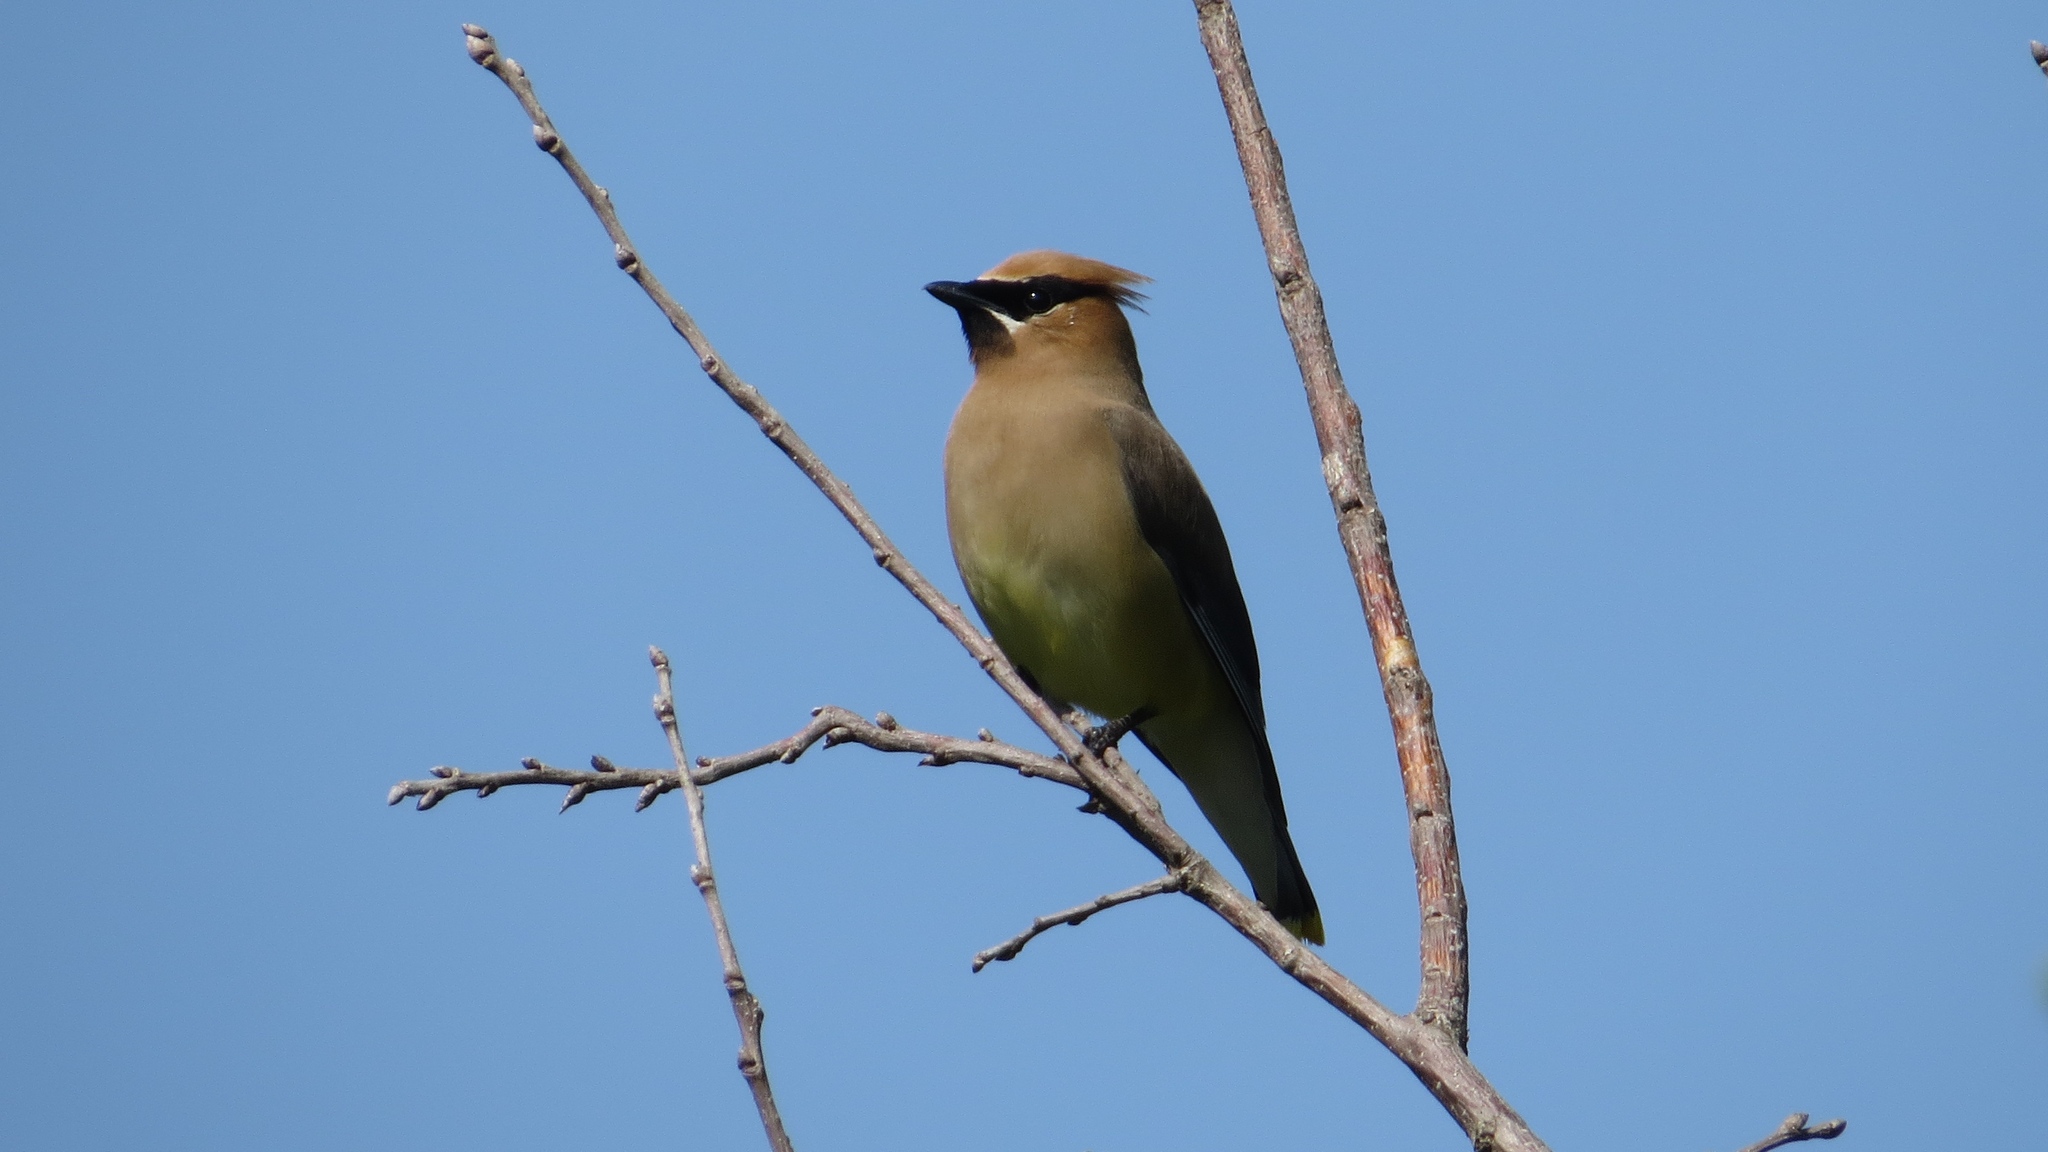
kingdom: Animalia
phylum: Chordata
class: Aves
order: Passeriformes
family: Bombycillidae
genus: Bombycilla
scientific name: Bombycilla cedrorum
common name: Cedar waxwing
